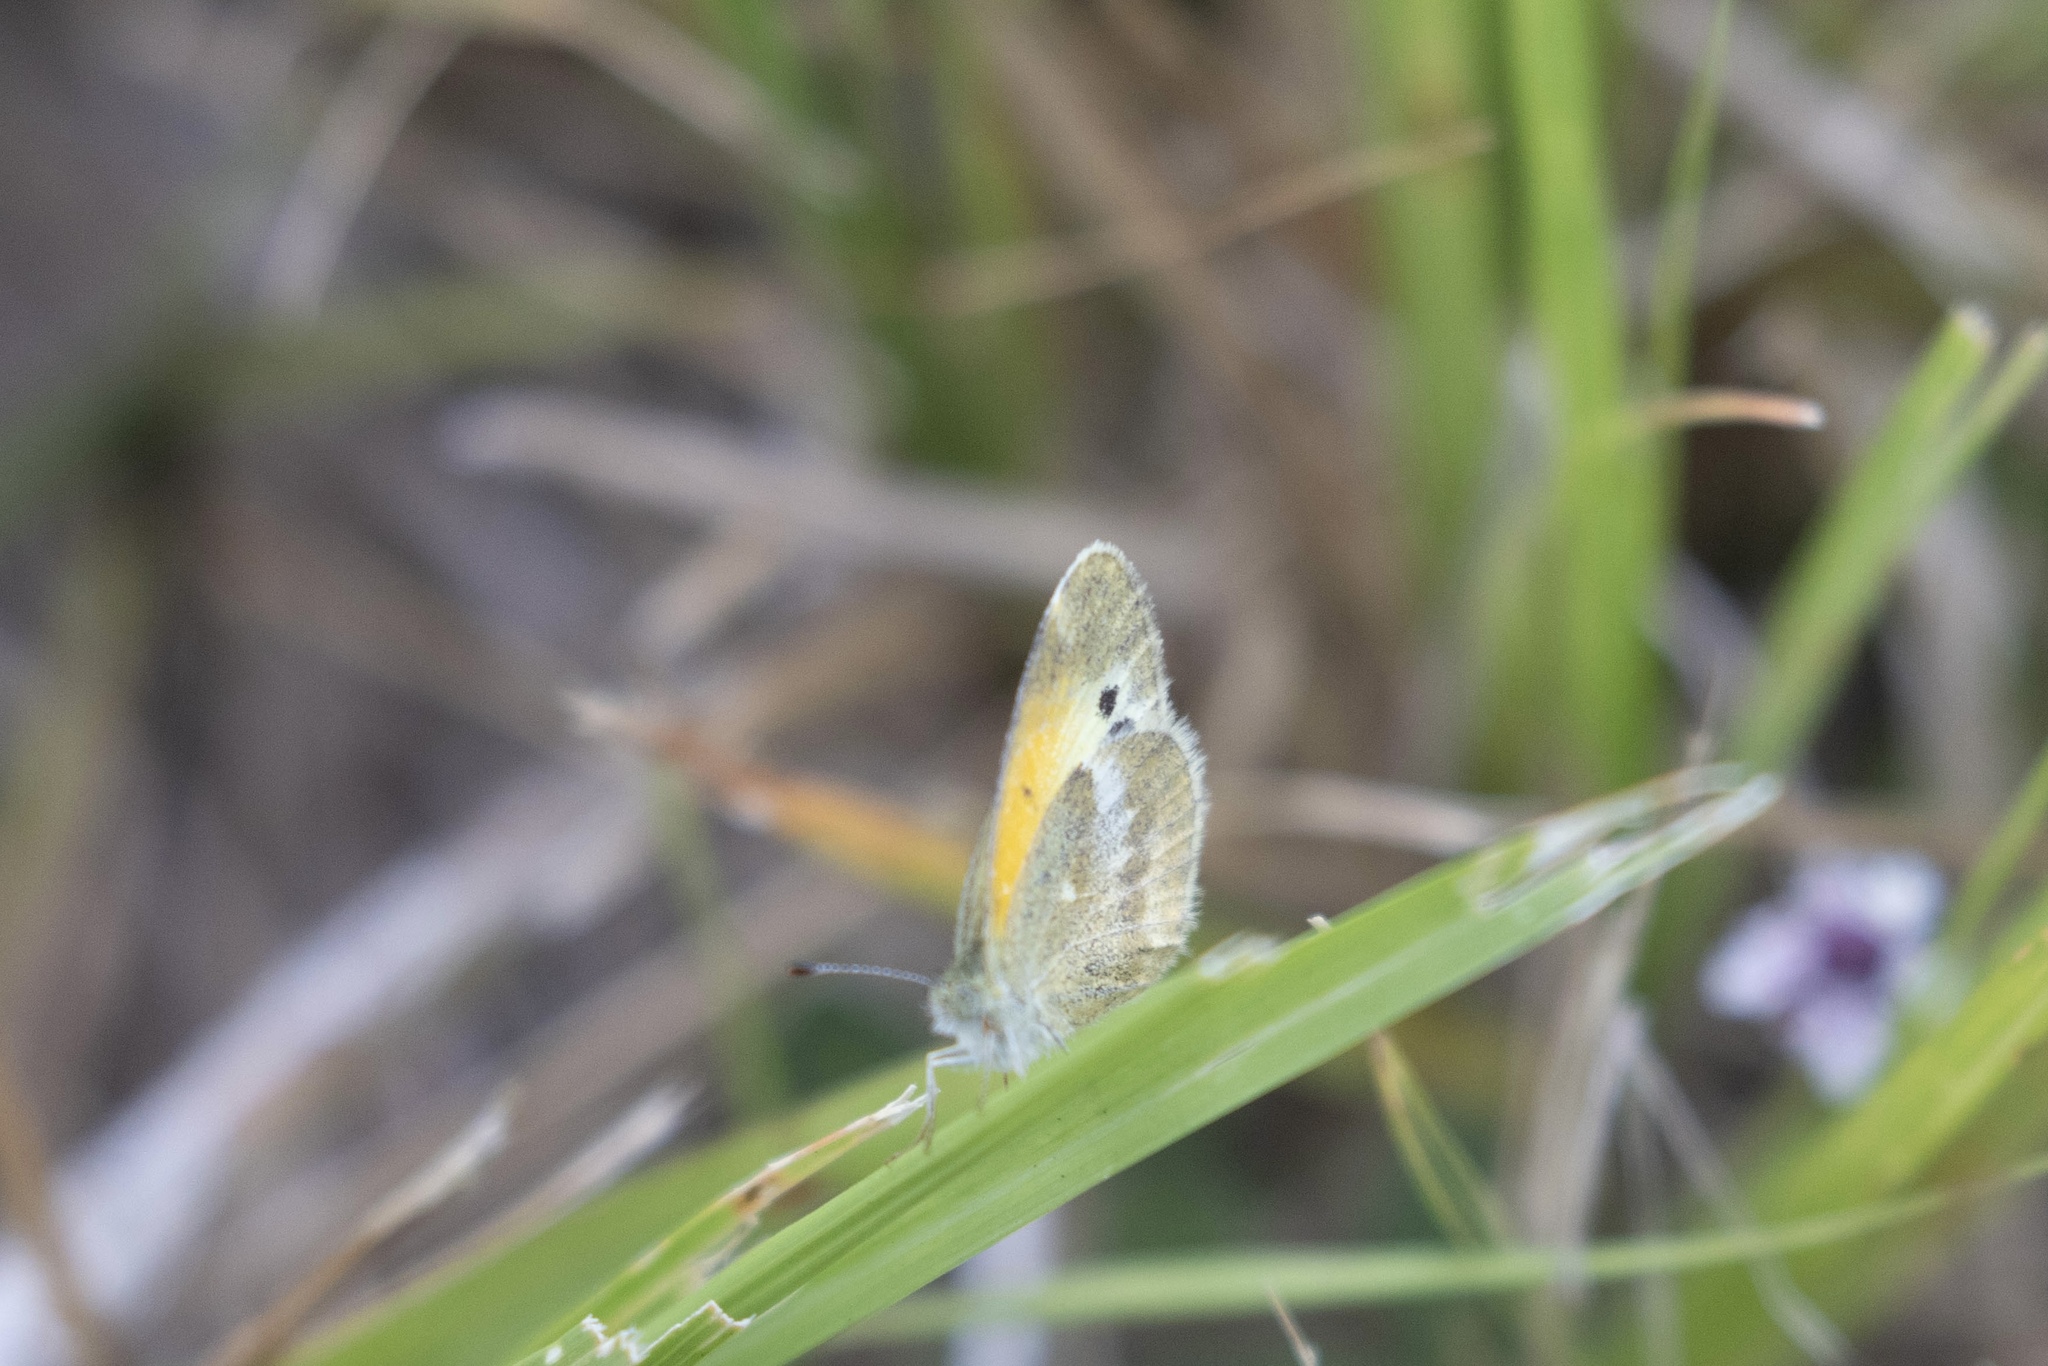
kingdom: Animalia
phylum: Arthropoda
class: Insecta
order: Lepidoptera
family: Pieridae
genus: Nathalis
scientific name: Nathalis iole
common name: Dainty sulphur
